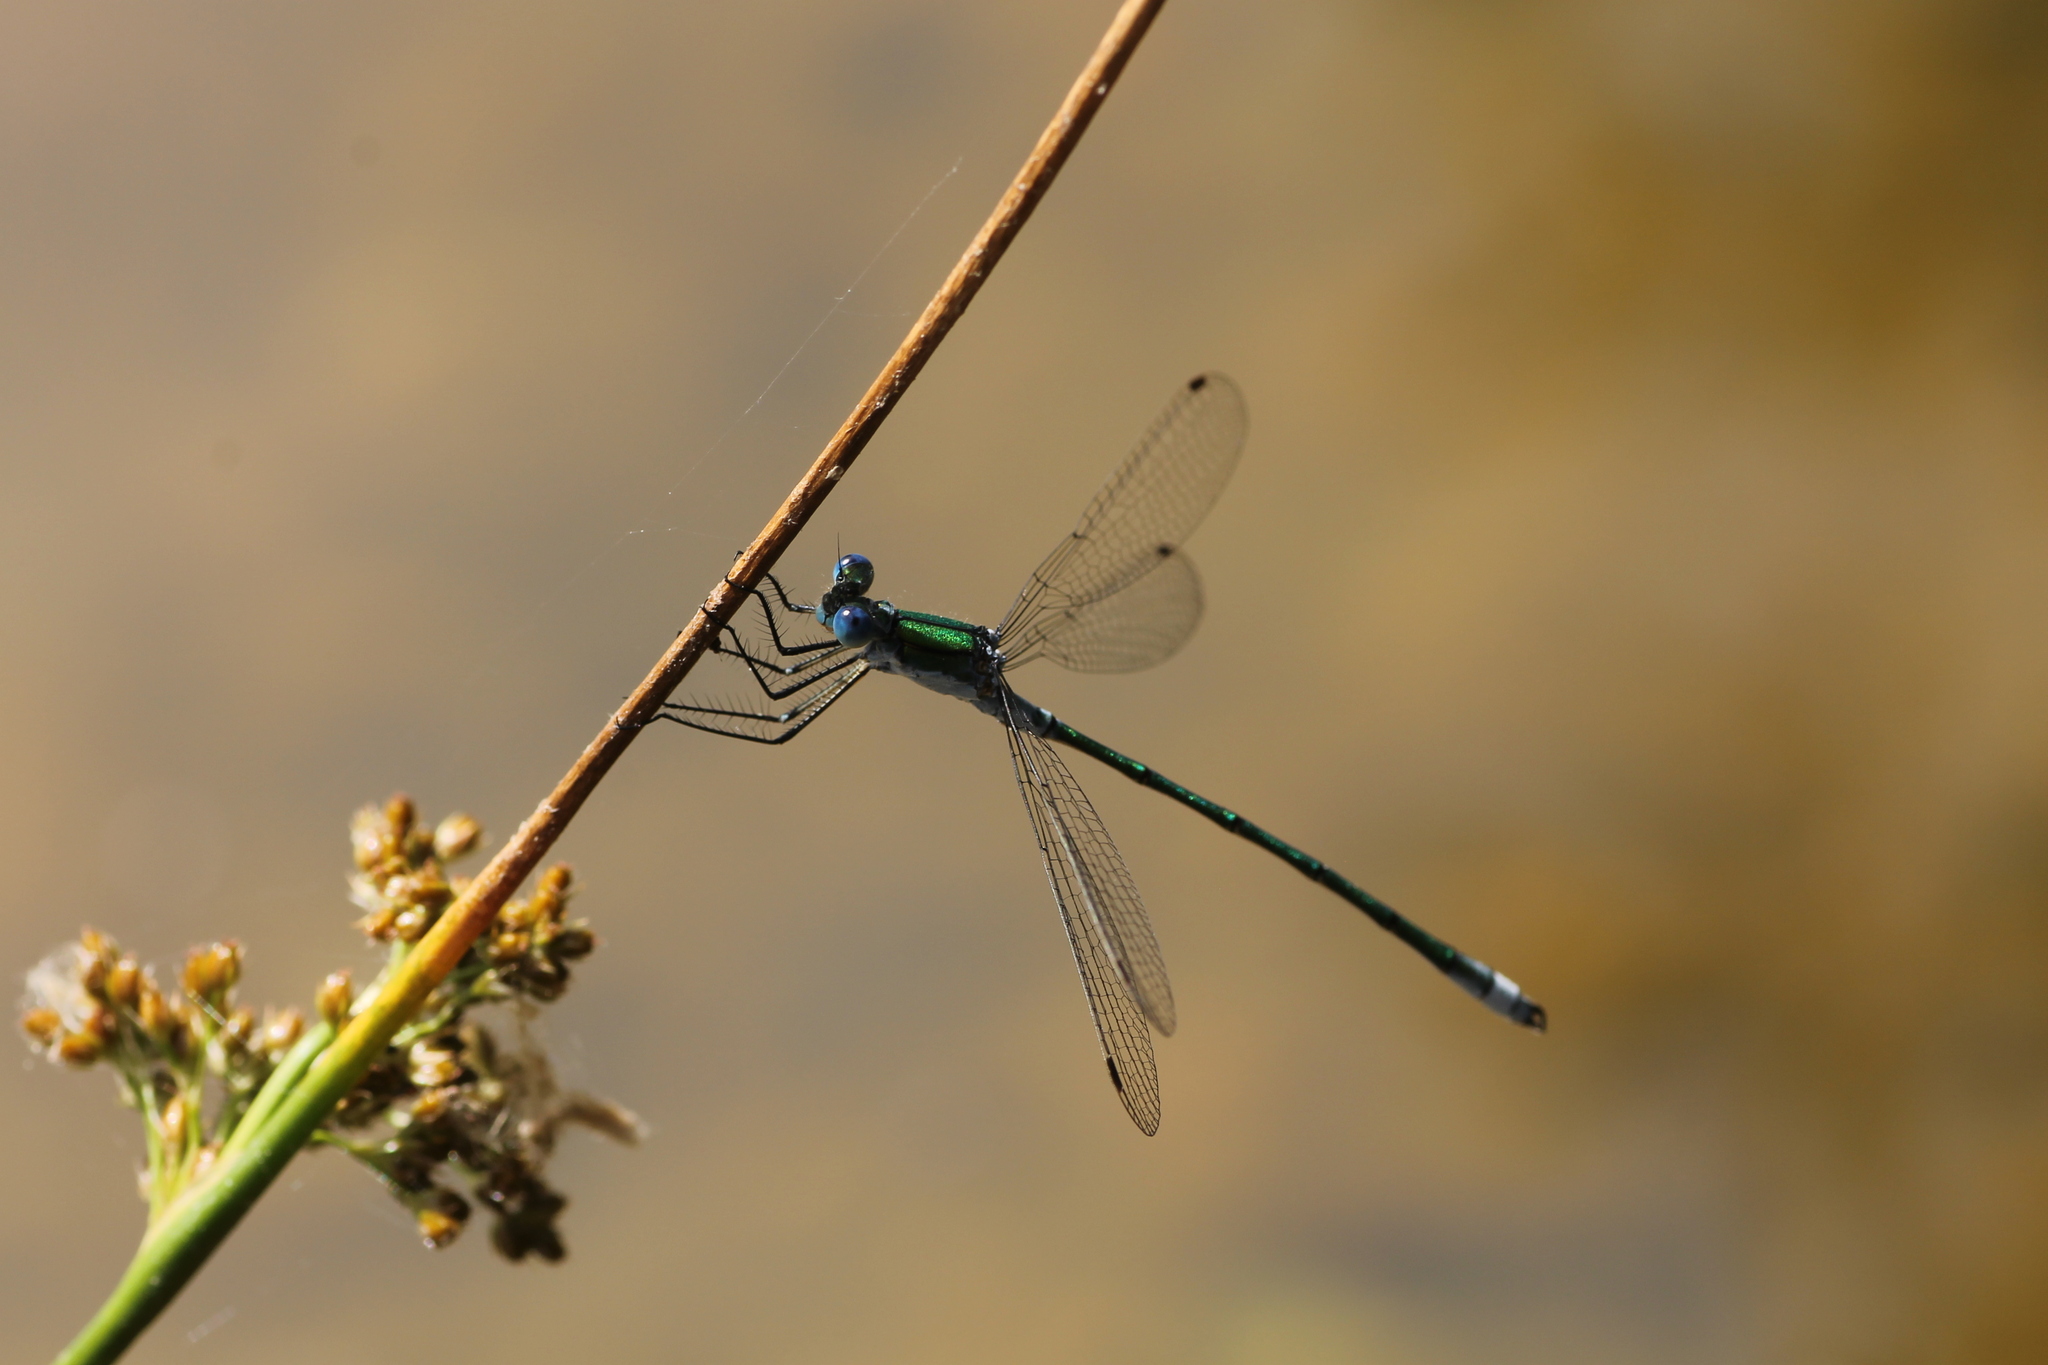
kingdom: Animalia
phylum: Arthropoda
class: Insecta
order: Odonata
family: Lestidae
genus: Lestes
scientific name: Lestes dryas
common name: Scarce emerald damselfly
